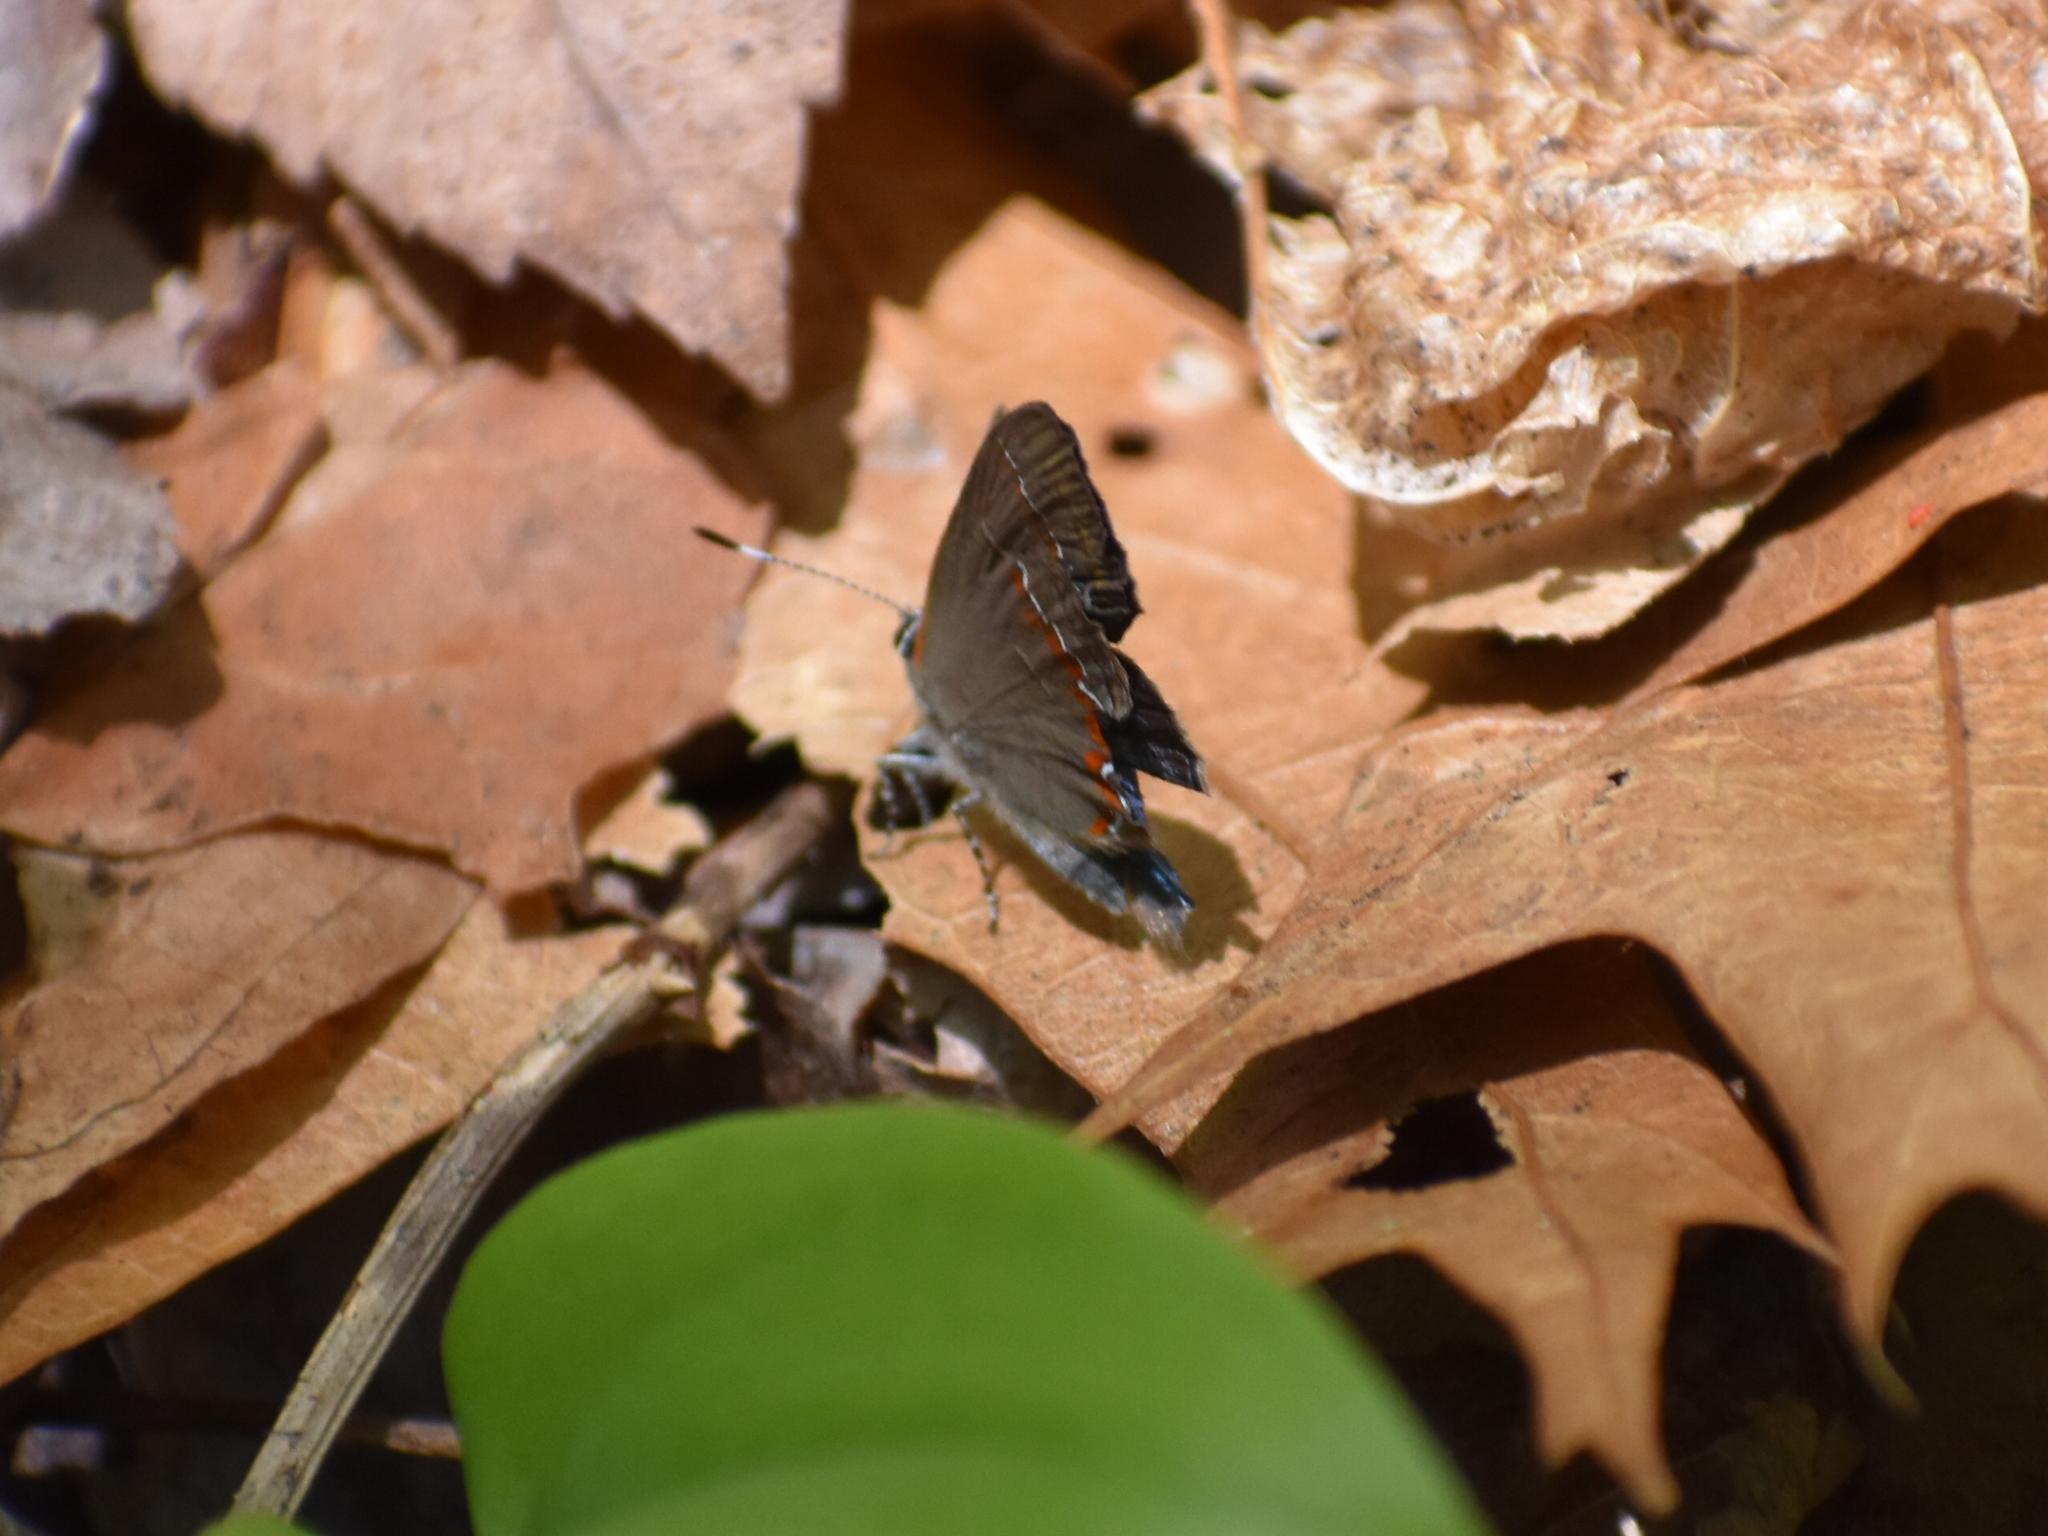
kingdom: Animalia
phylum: Arthropoda
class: Insecta
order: Lepidoptera
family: Lycaenidae
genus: Calycopis
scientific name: Calycopis cecrops
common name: Red-banded hairstreak
